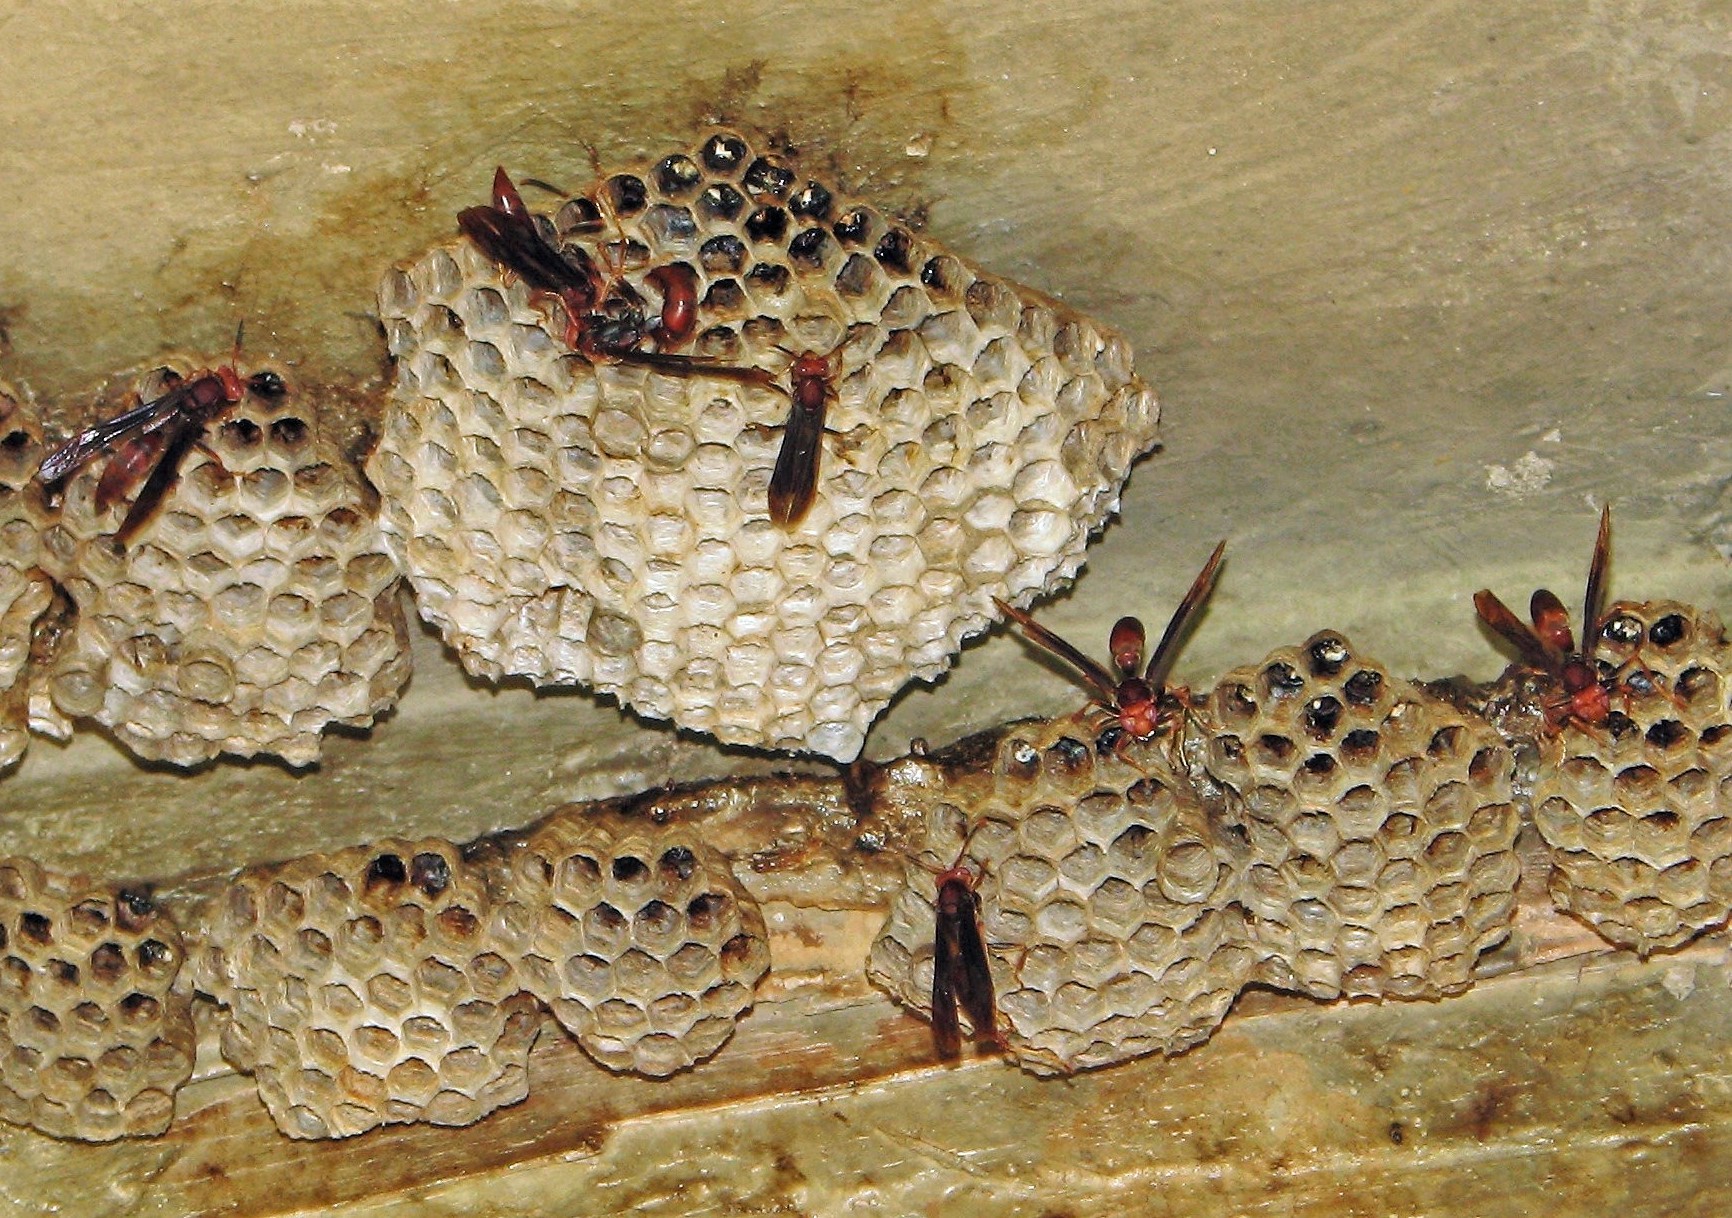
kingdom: Animalia
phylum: Arthropoda
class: Insecta
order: Hymenoptera
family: Eumenidae
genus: Polistes
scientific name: Polistes canadensis
